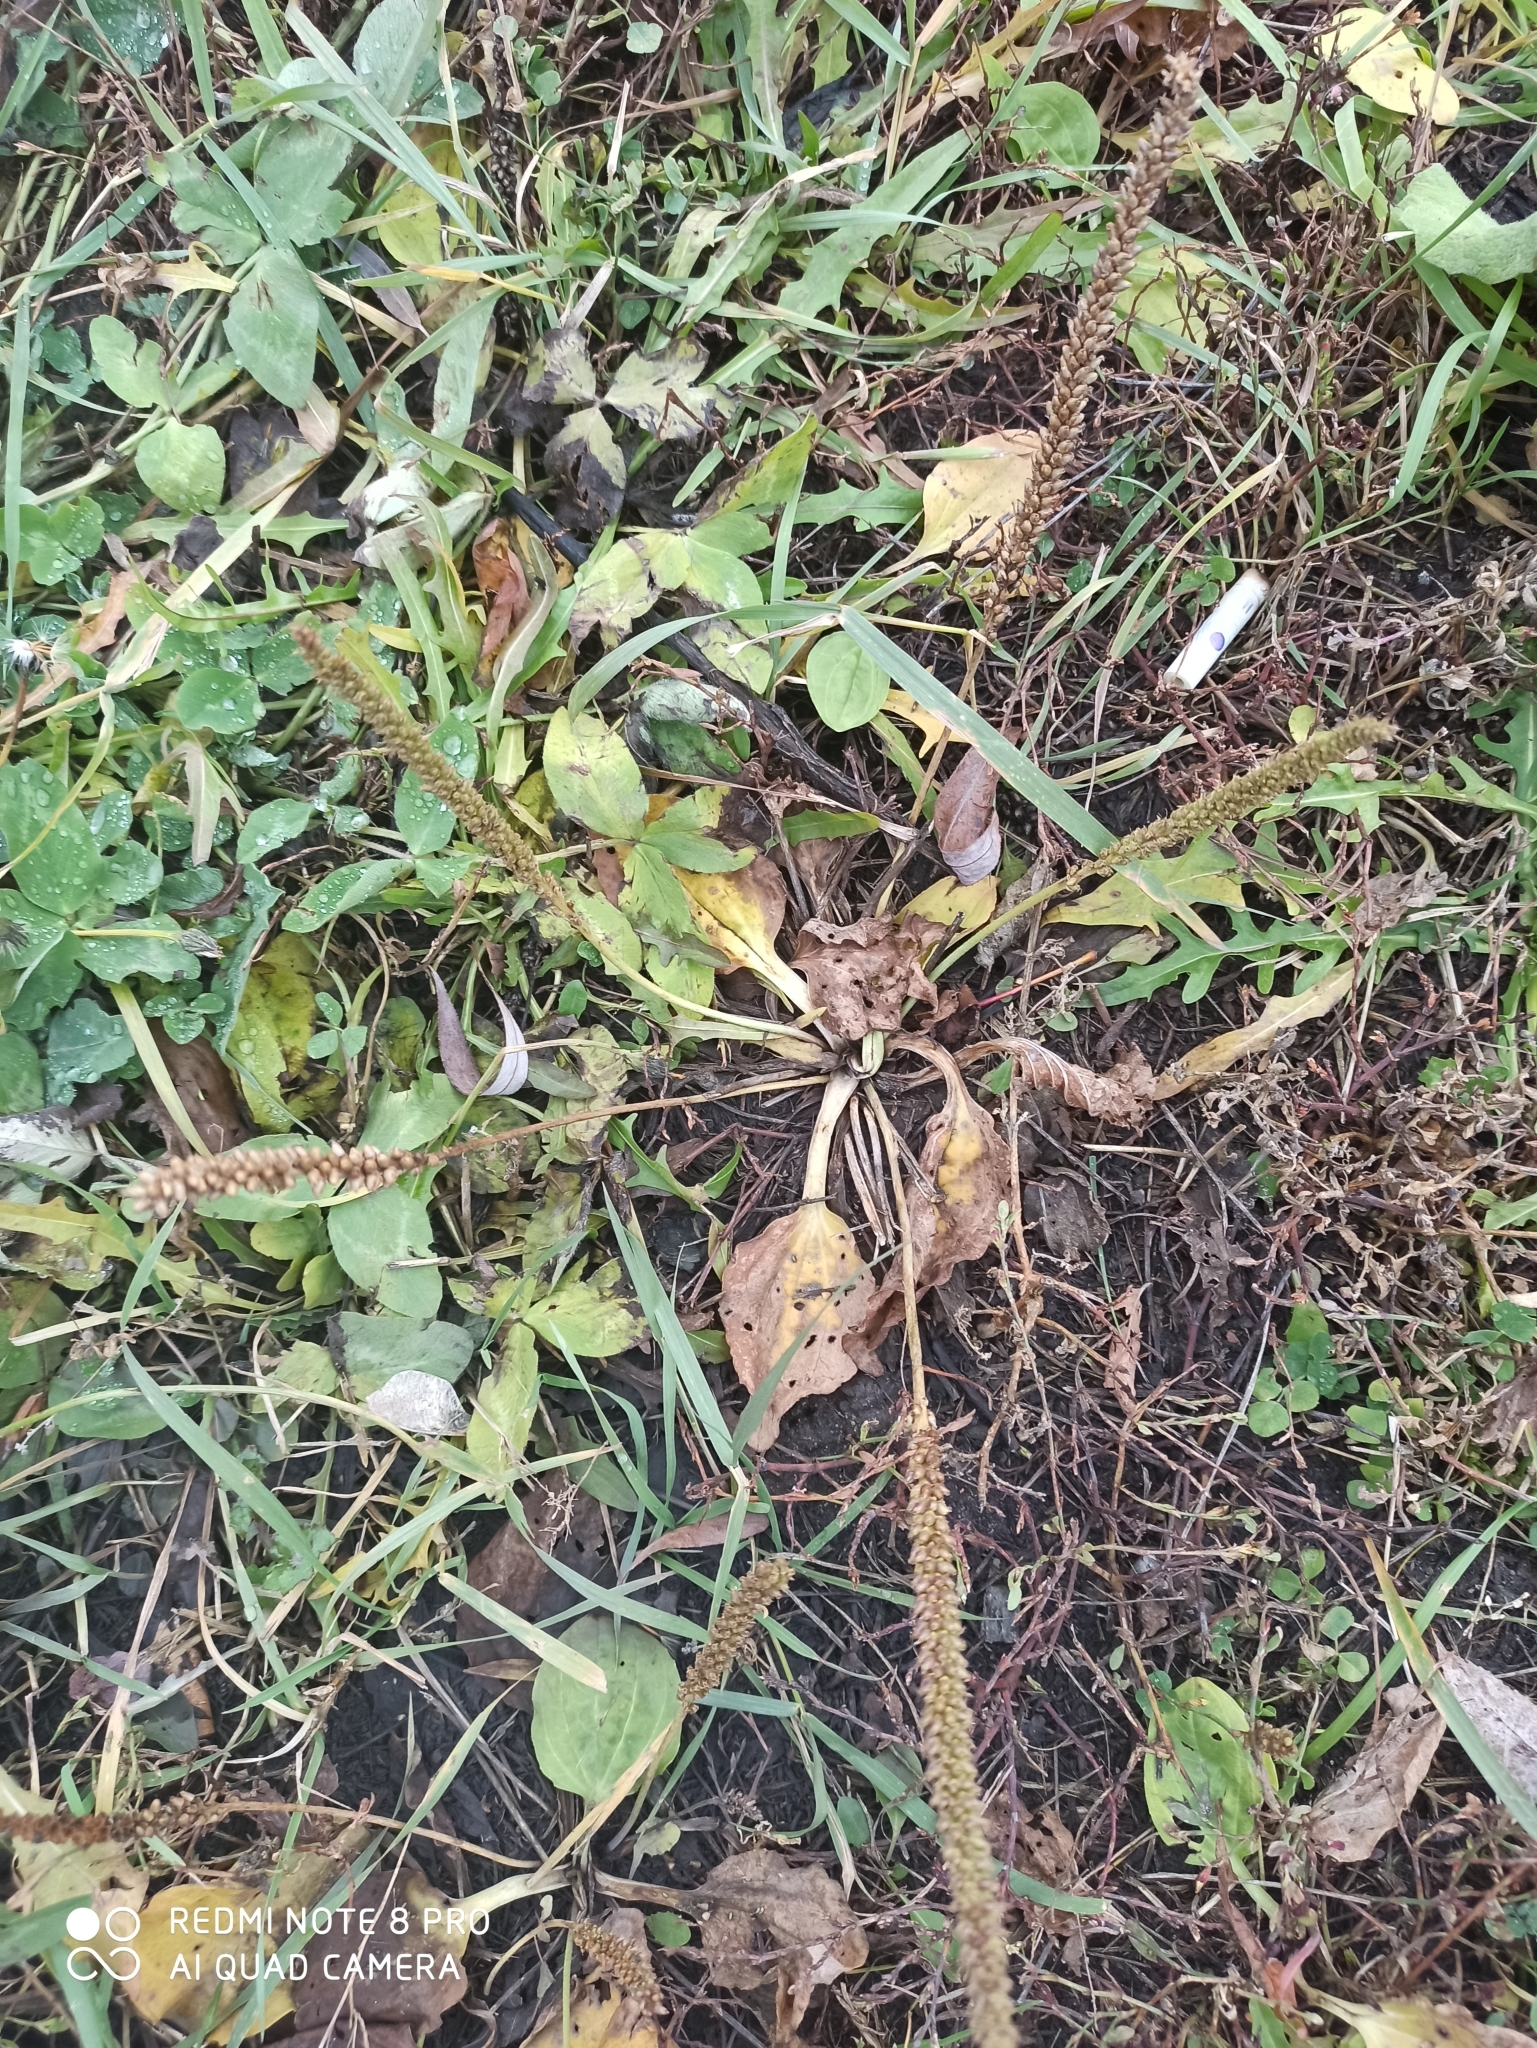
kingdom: Plantae
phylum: Tracheophyta
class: Magnoliopsida
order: Lamiales
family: Plantaginaceae
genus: Plantago
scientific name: Plantago major
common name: Common plantain
